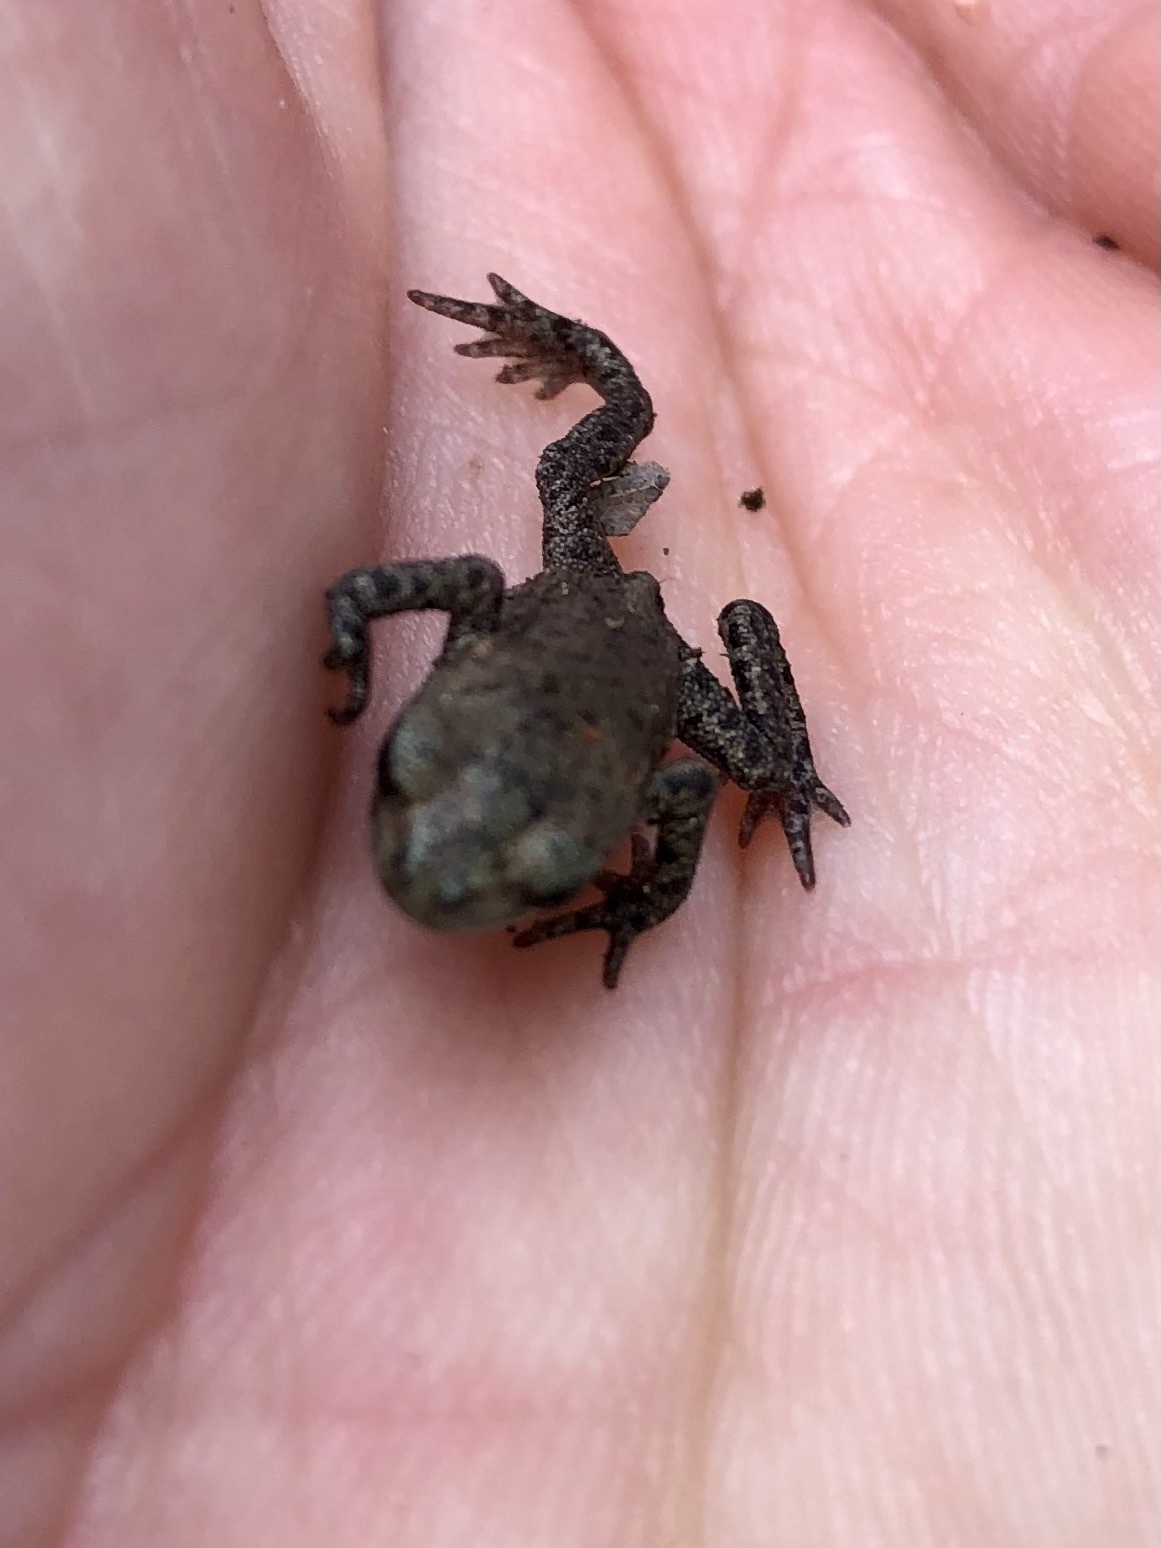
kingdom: Animalia
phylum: Chordata
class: Amphibia
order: Anura
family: Bufonidae
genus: Bufo
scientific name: Bufo bufo
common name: Common toad
